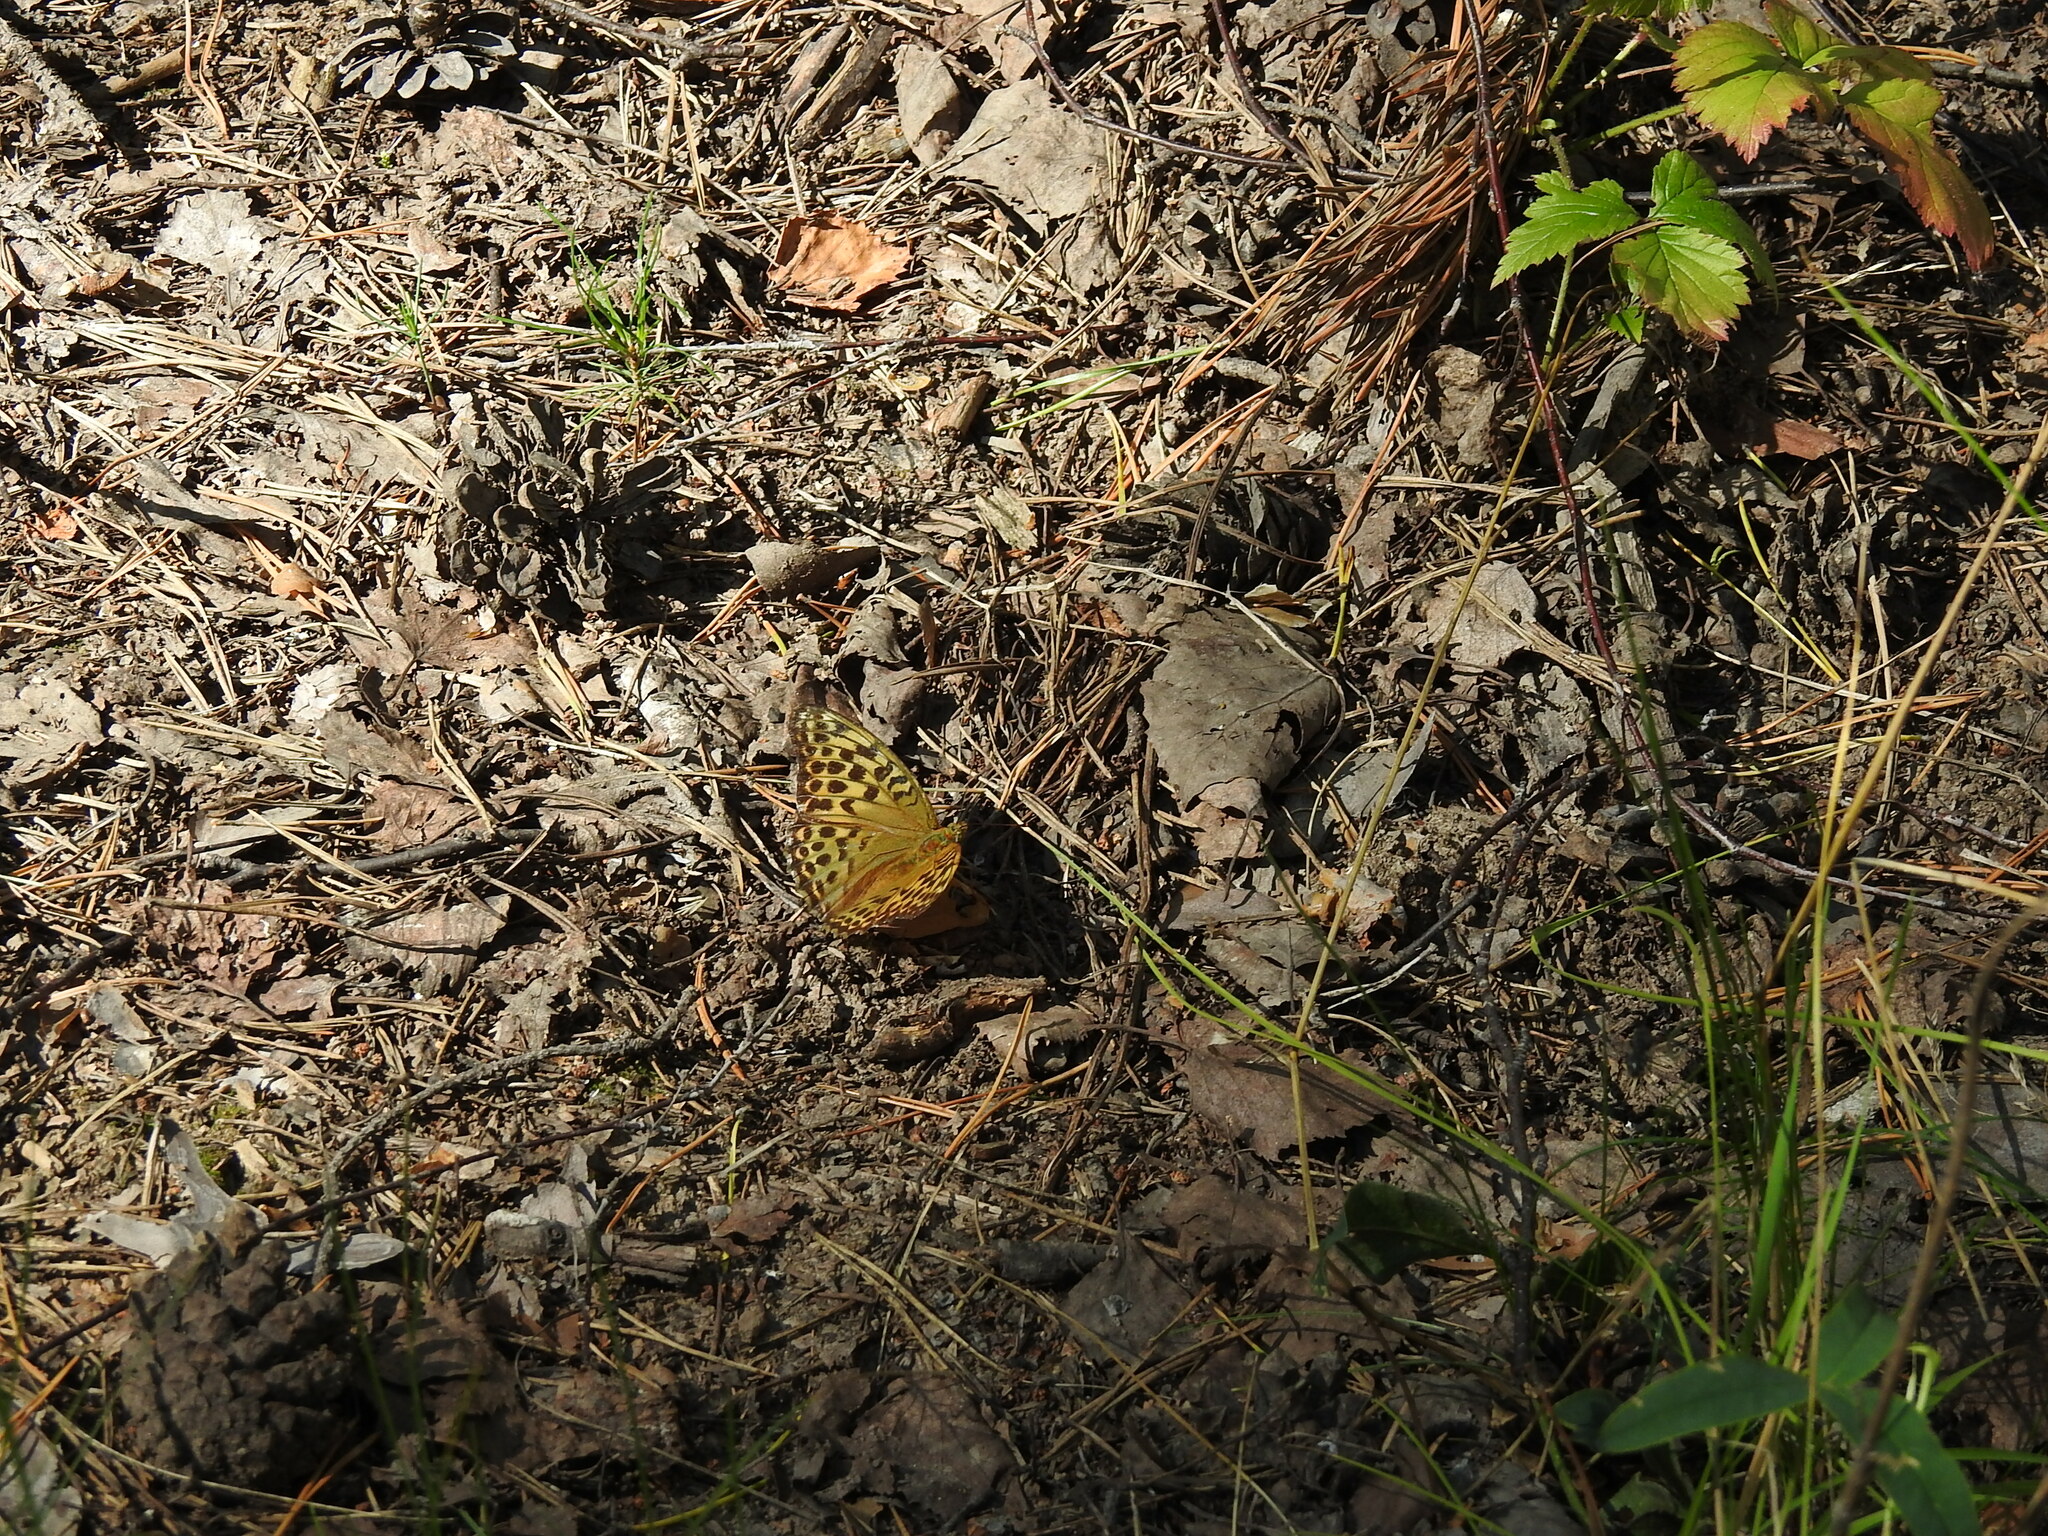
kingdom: Animalia
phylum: Arthropoda
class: Insecta
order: Lepidoptera
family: Nymphalidae
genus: Argynnis
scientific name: Argynnis paphia
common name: Silver-washed fritillary
